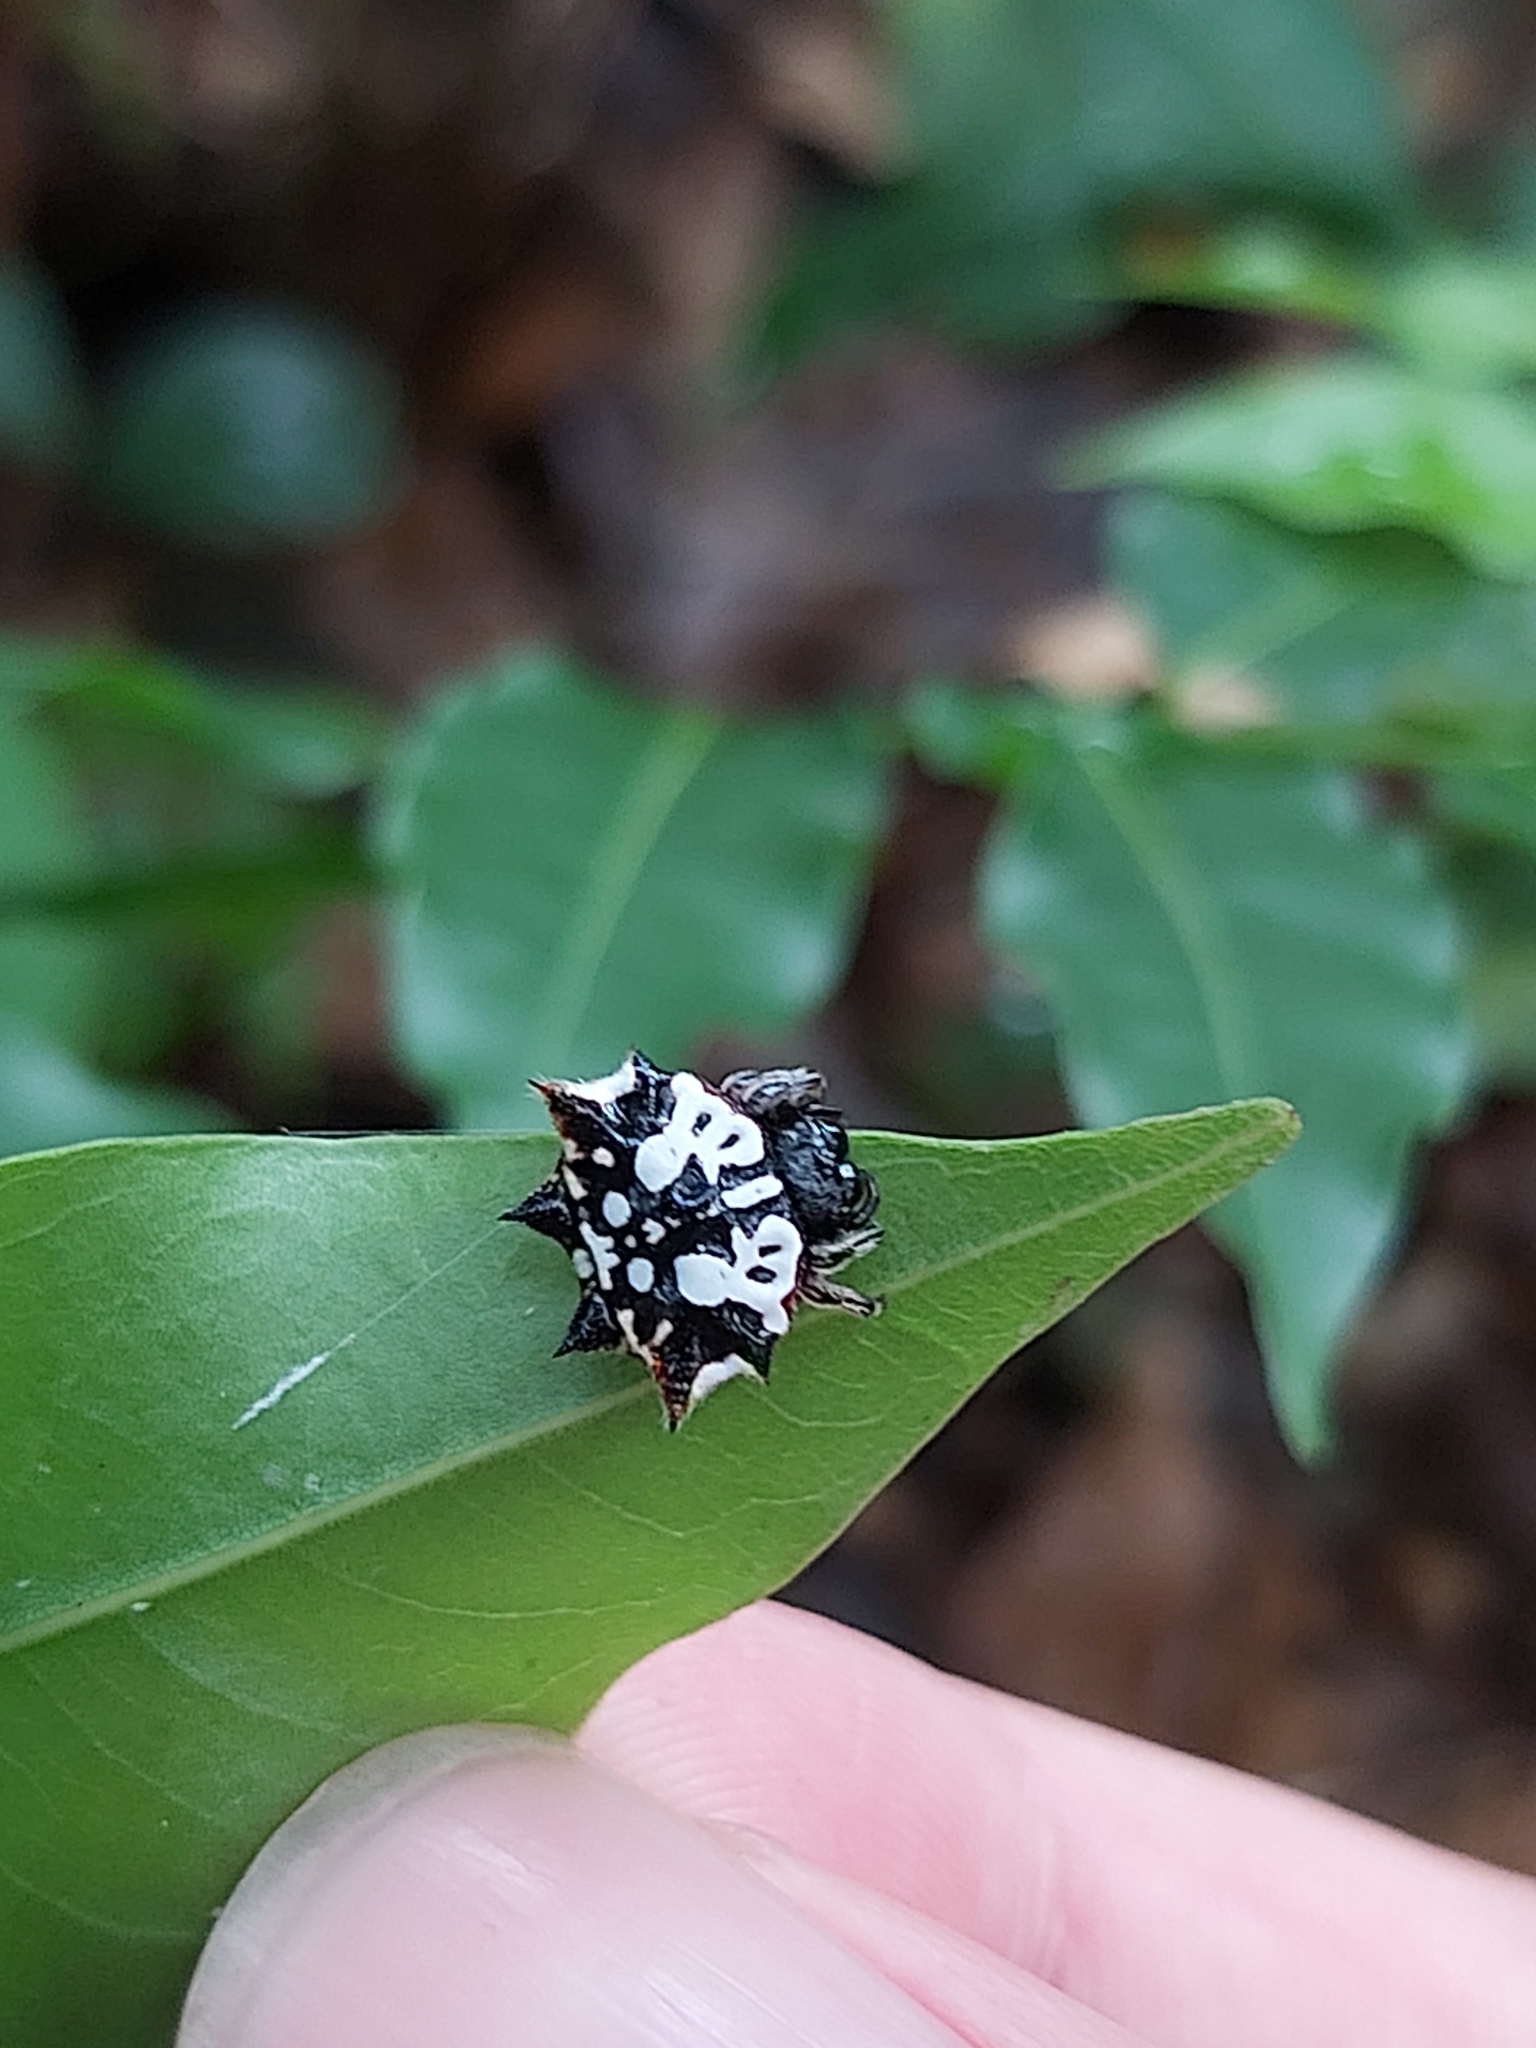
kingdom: Animalia
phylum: Arthropoda
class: Arachnida
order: Araneae
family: Araneidae
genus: Gasteracantha
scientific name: Gasteracantha sacerdotalis
